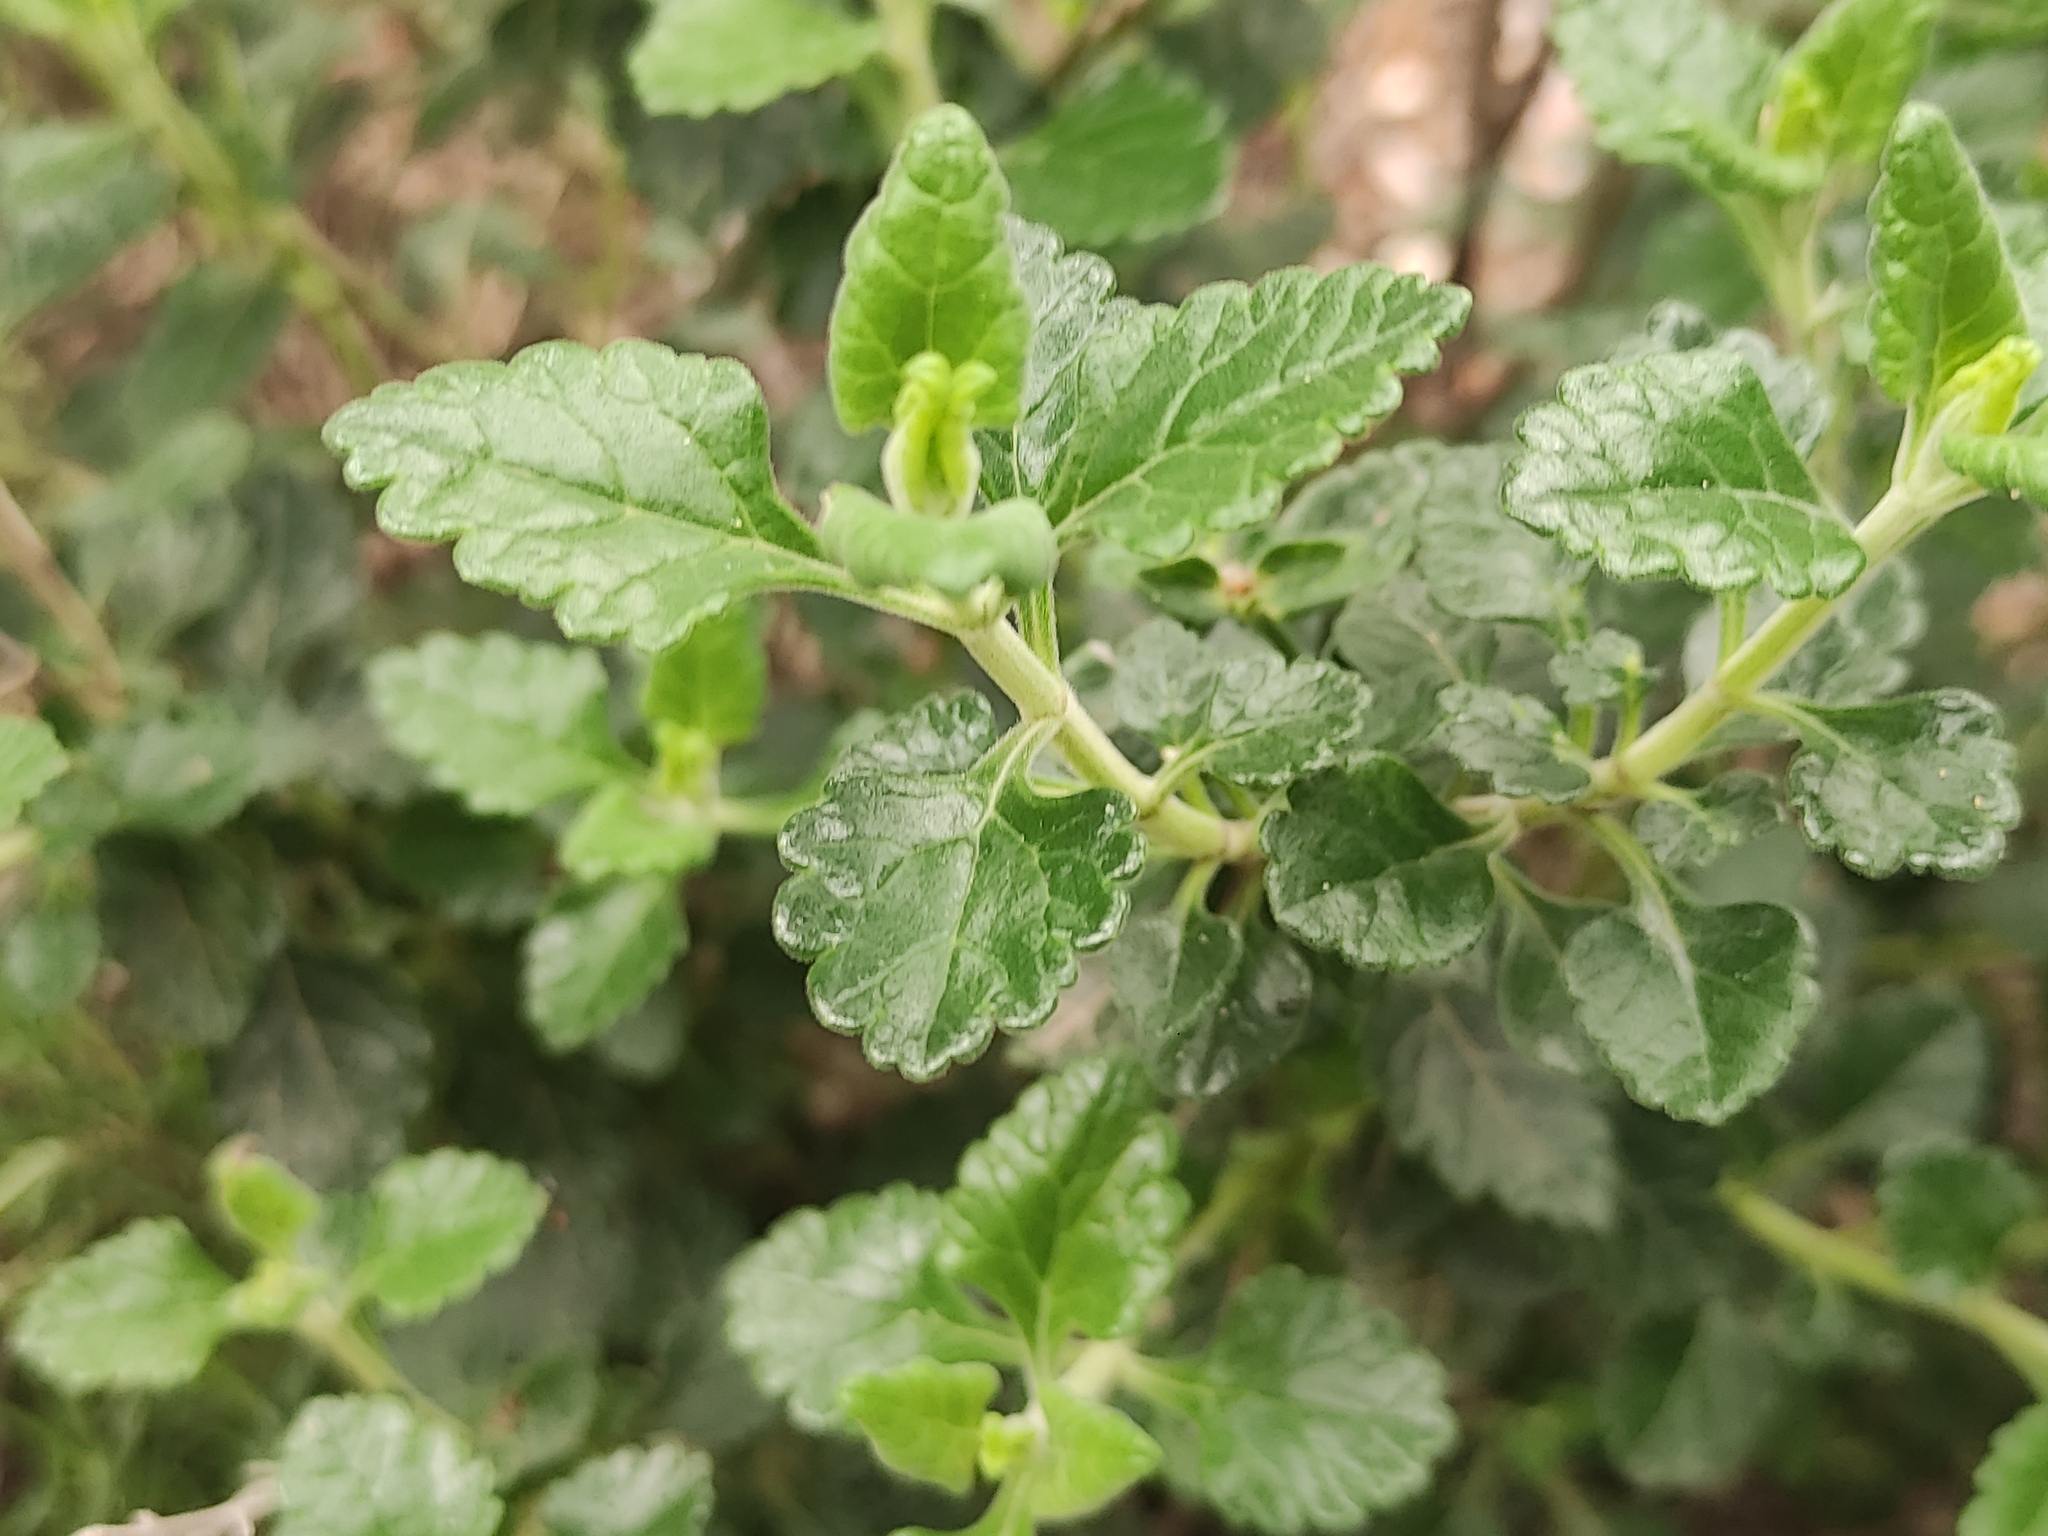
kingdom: Plantae
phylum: Tracheophyta
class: Magnoliopsida
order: Lamiales
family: Lamiaceae
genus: Teucrium
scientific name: Teucrium flavum
